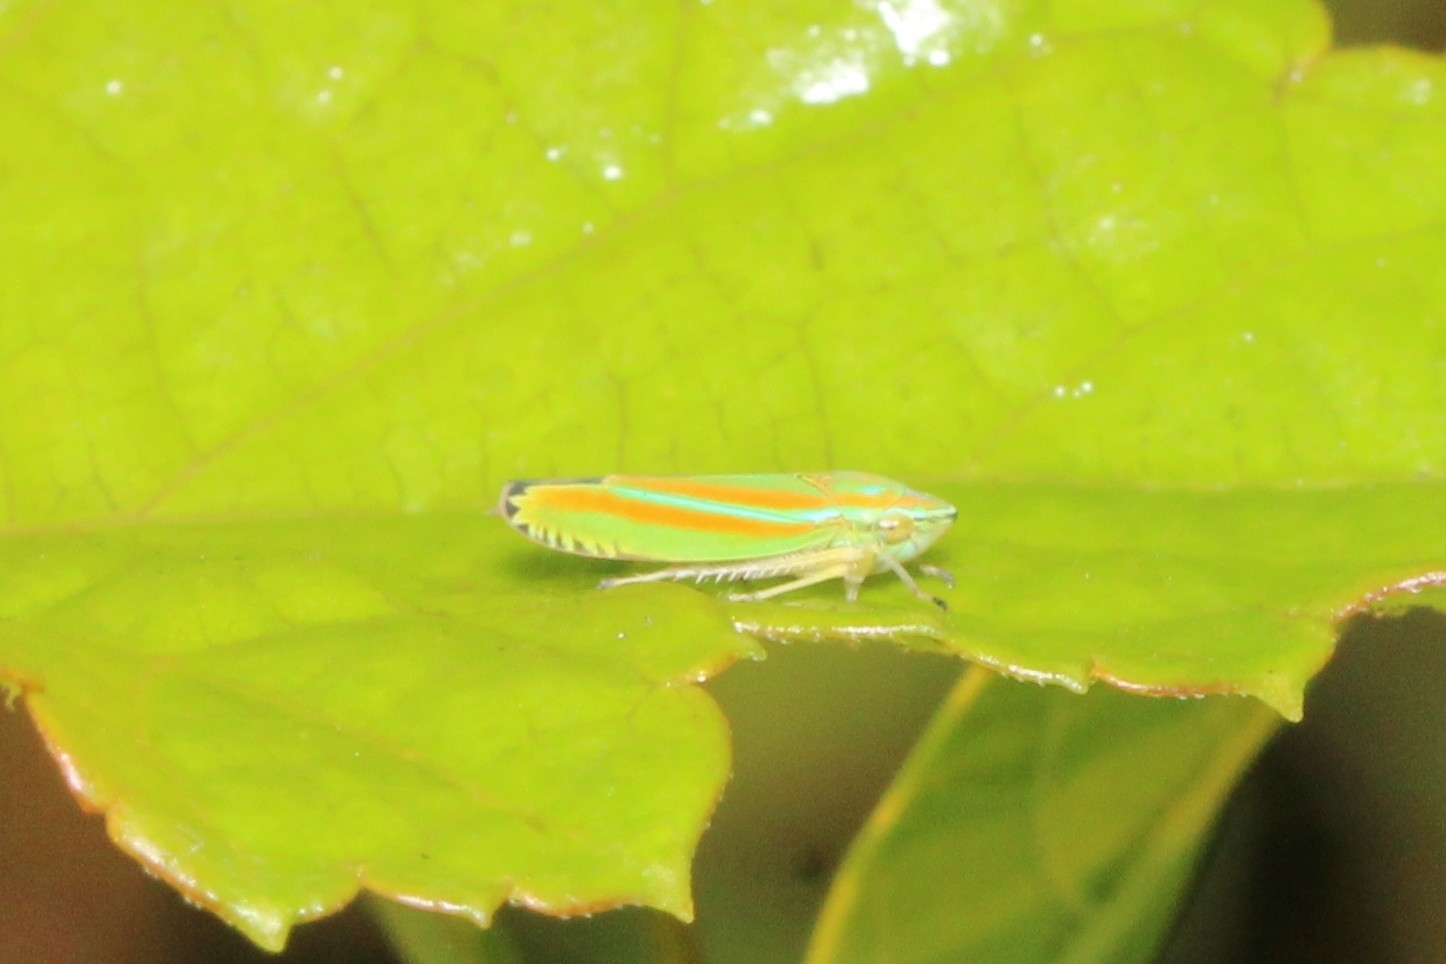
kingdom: Animalia
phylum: Arthropoda
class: Insecta
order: Hemiptera
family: Cicadellidae
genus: Graphocephala
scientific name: Graphocephala versuta
